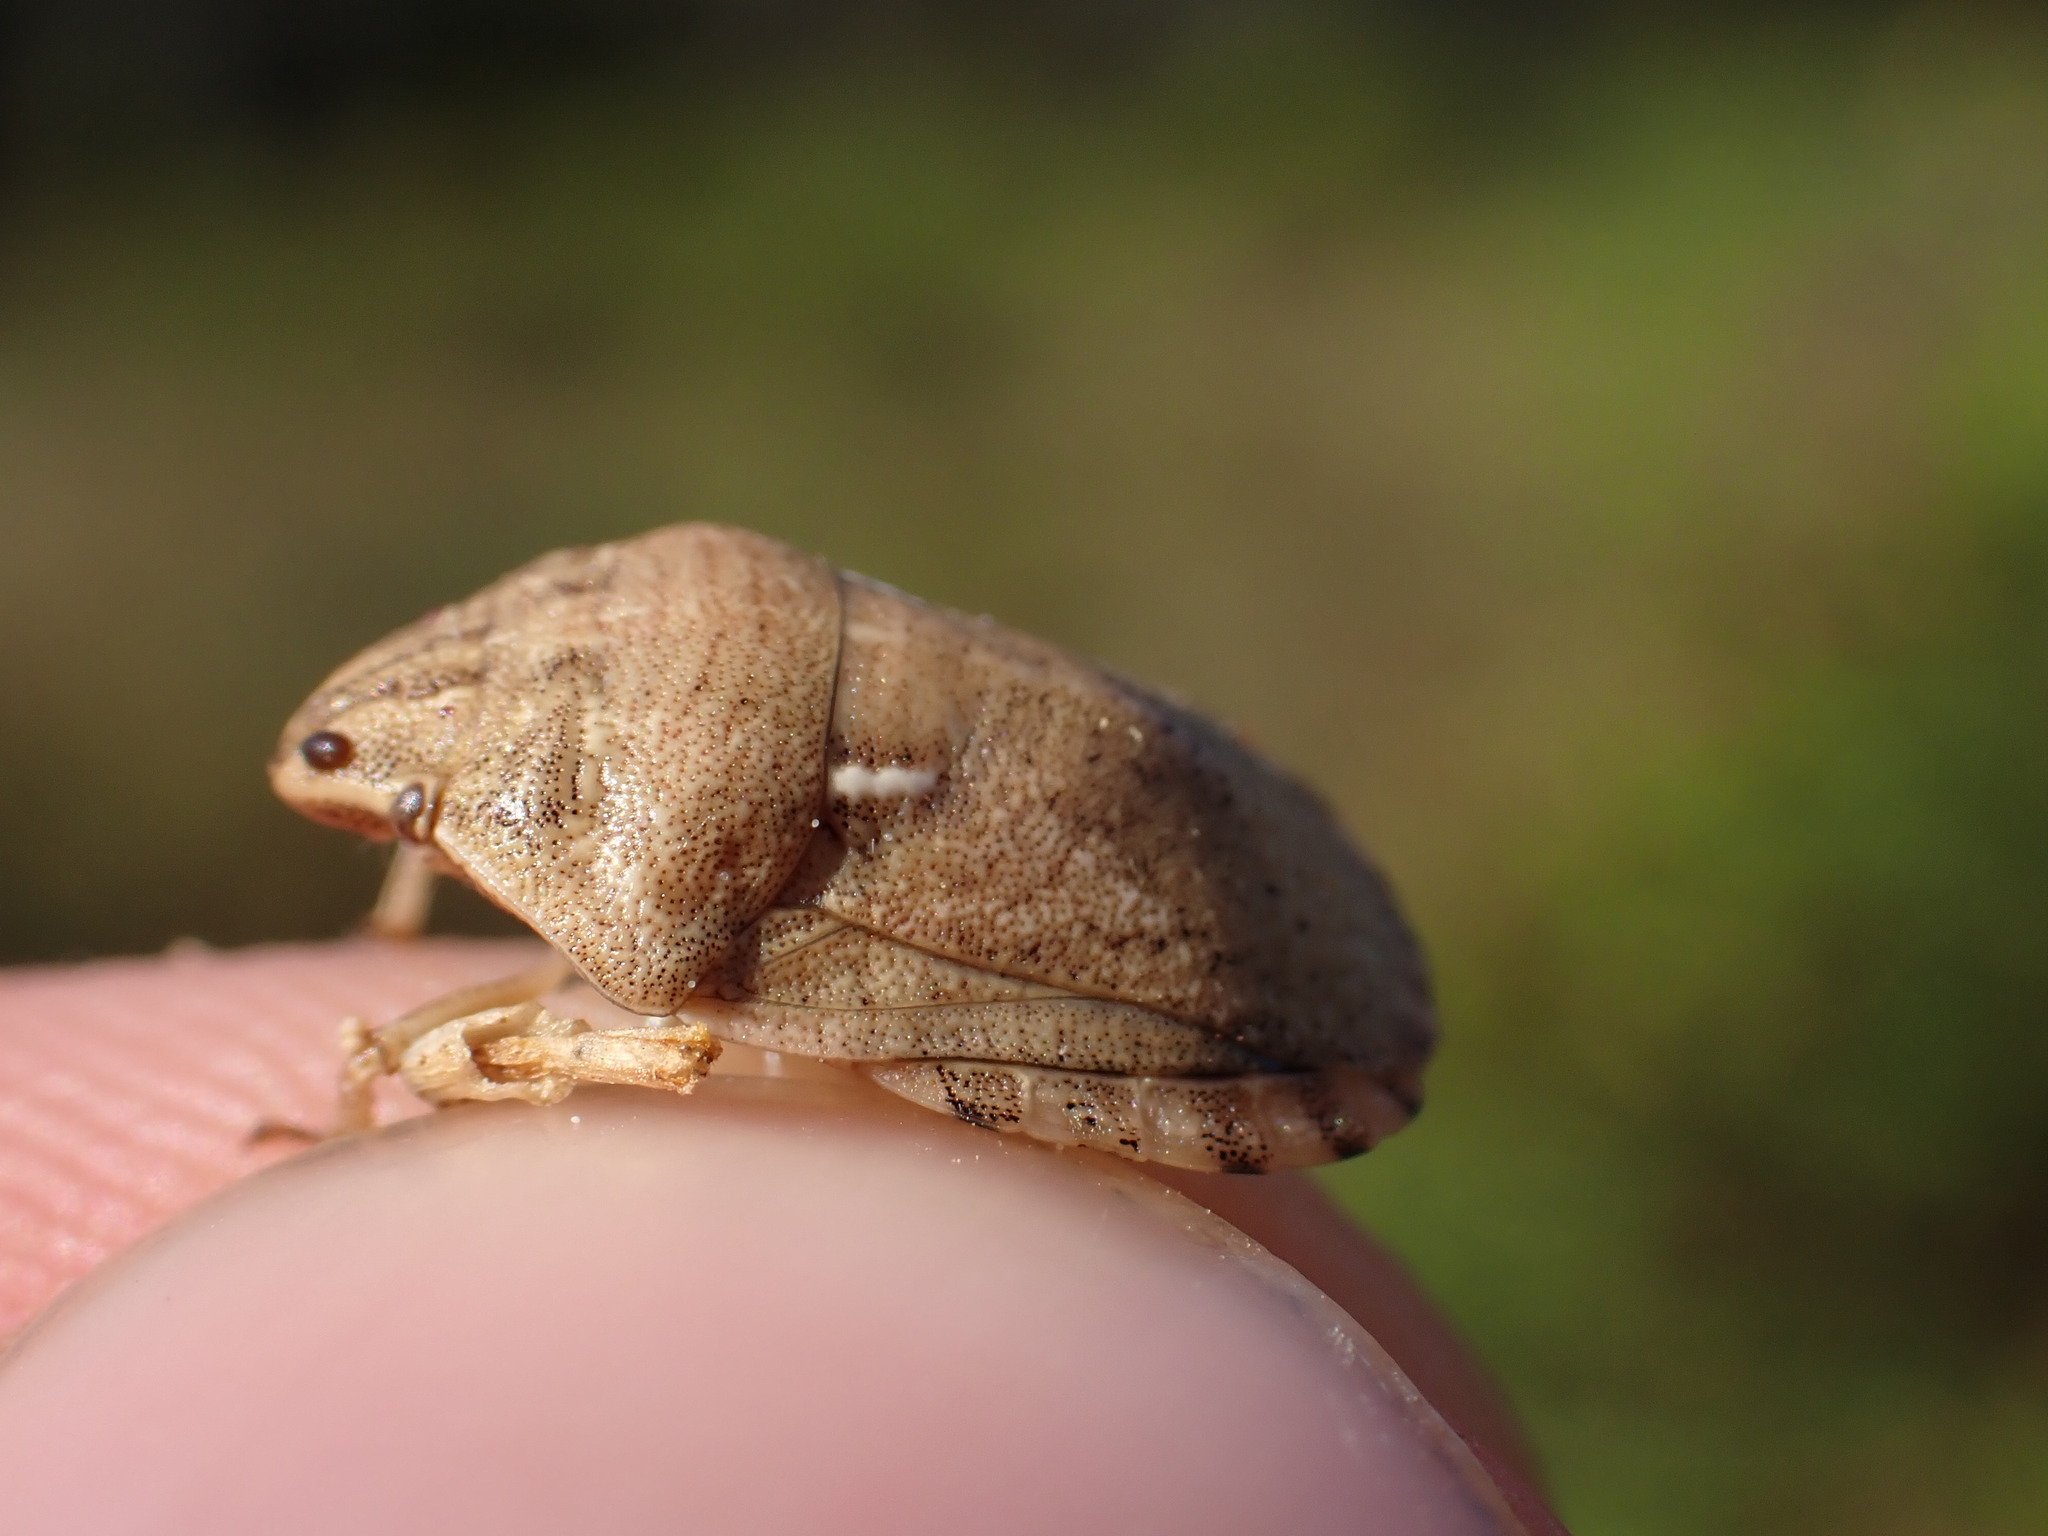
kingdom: Animalia
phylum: Arthropoda
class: Insecta
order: Hemiptera
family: Scutelleridae
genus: Eurygaster
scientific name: Eurygaster maura
